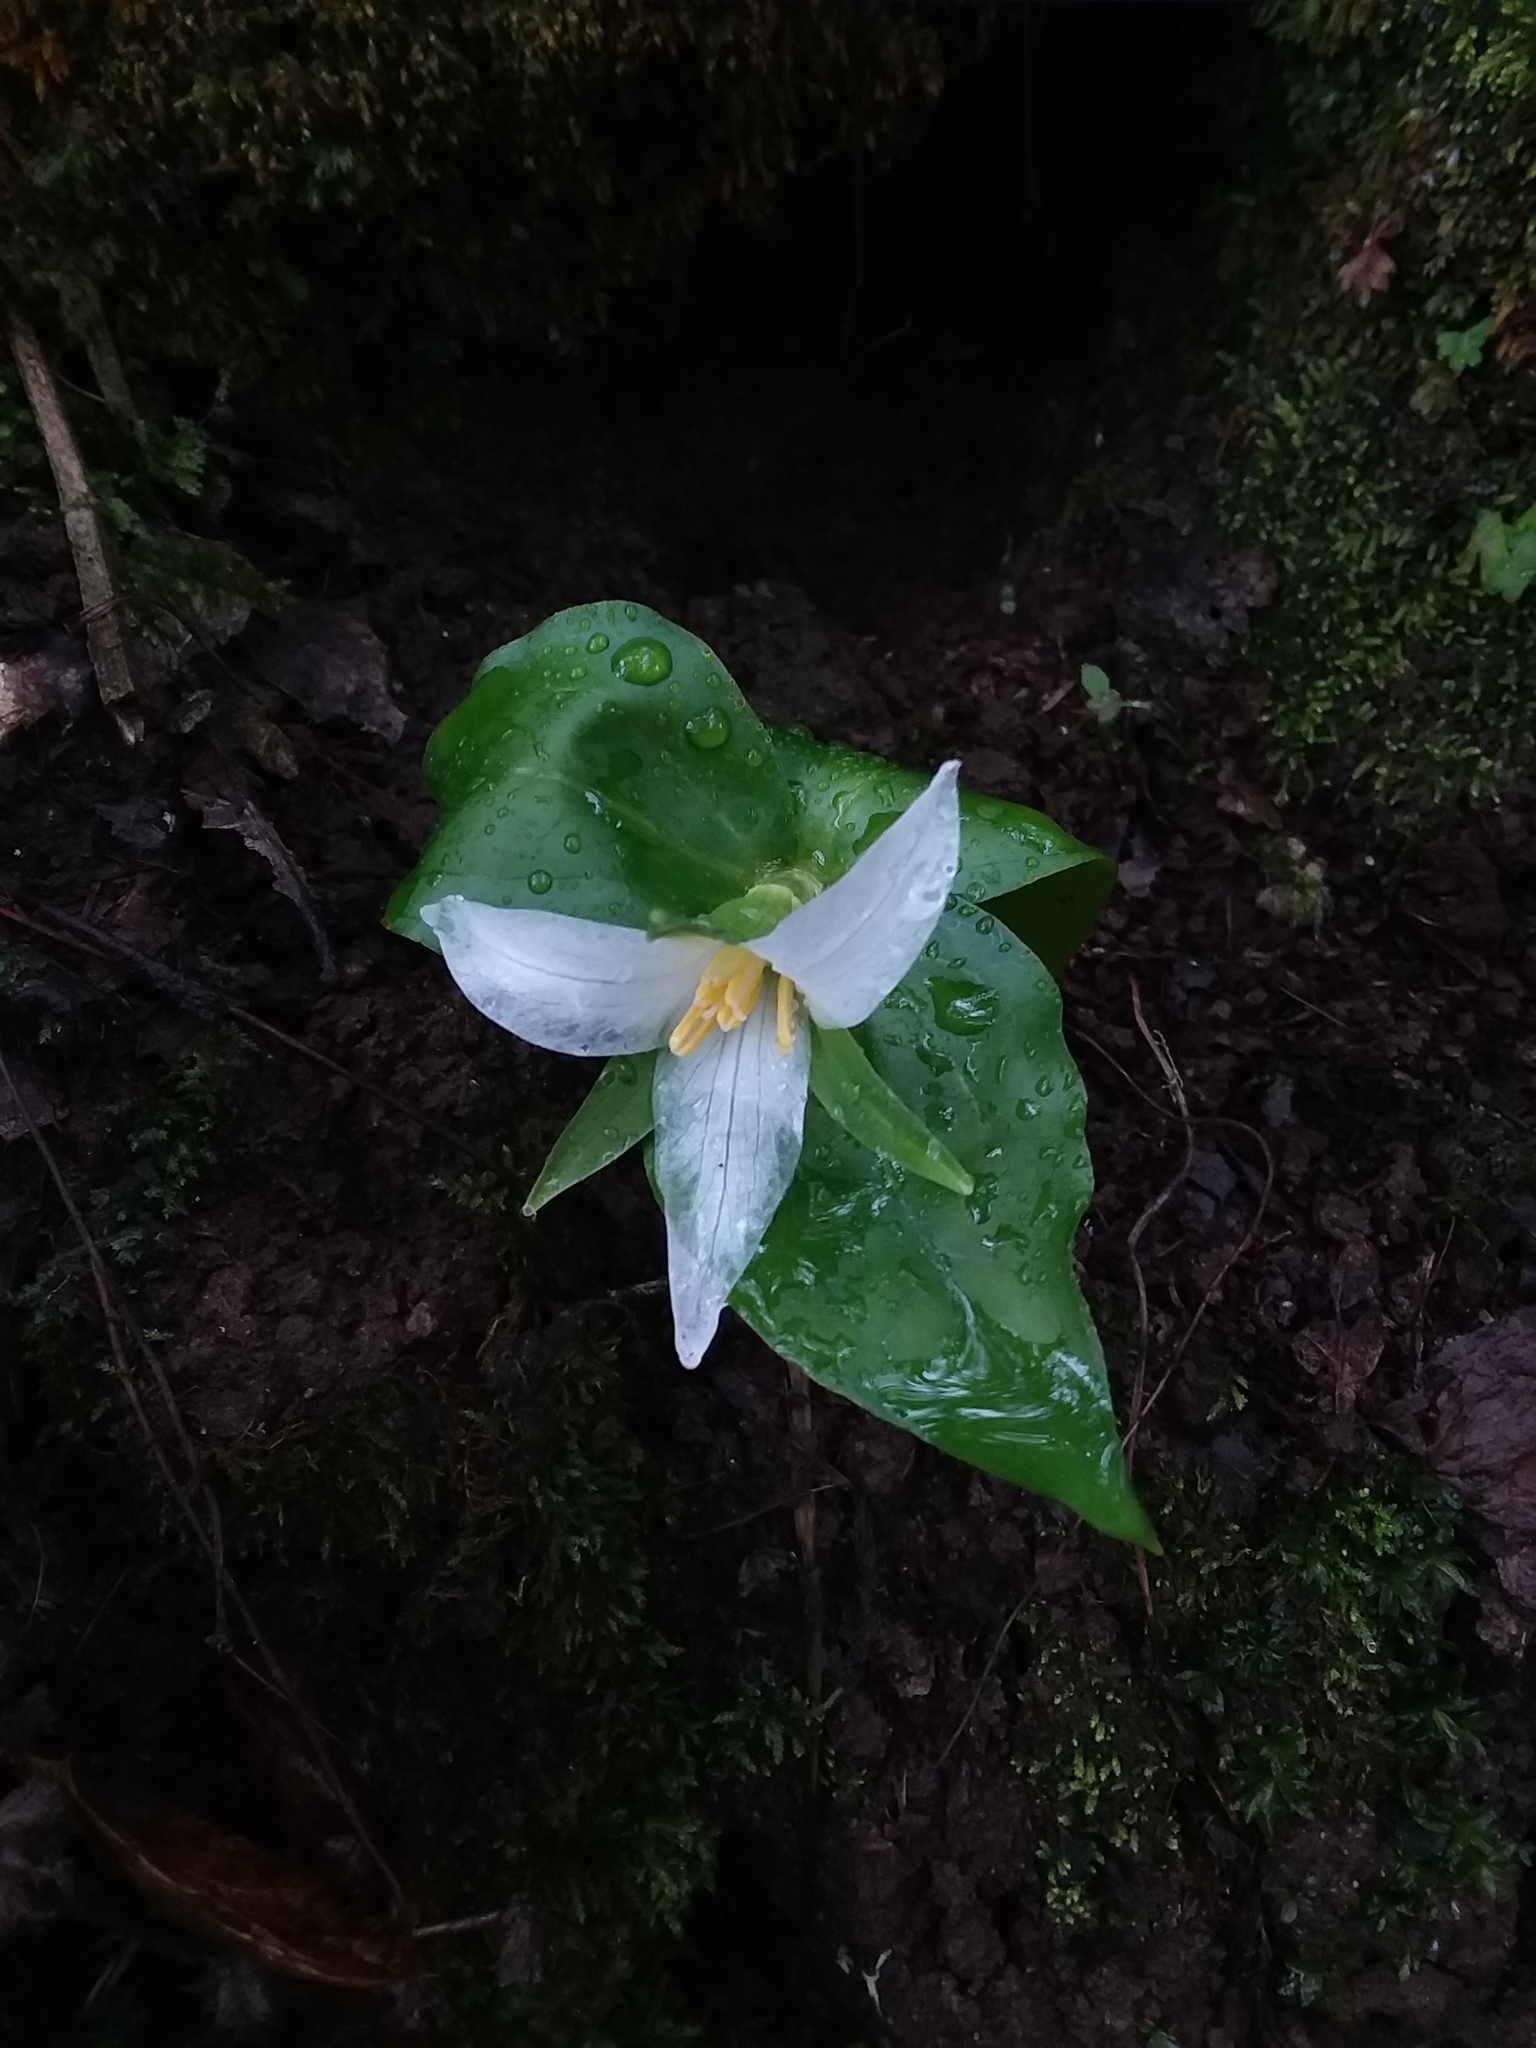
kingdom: Plantae
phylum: Tracheophyta
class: Liliopsida
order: Liliales
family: Melanthiaceae
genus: Trillium
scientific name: Trillium ovatum
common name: Pacific trillium
